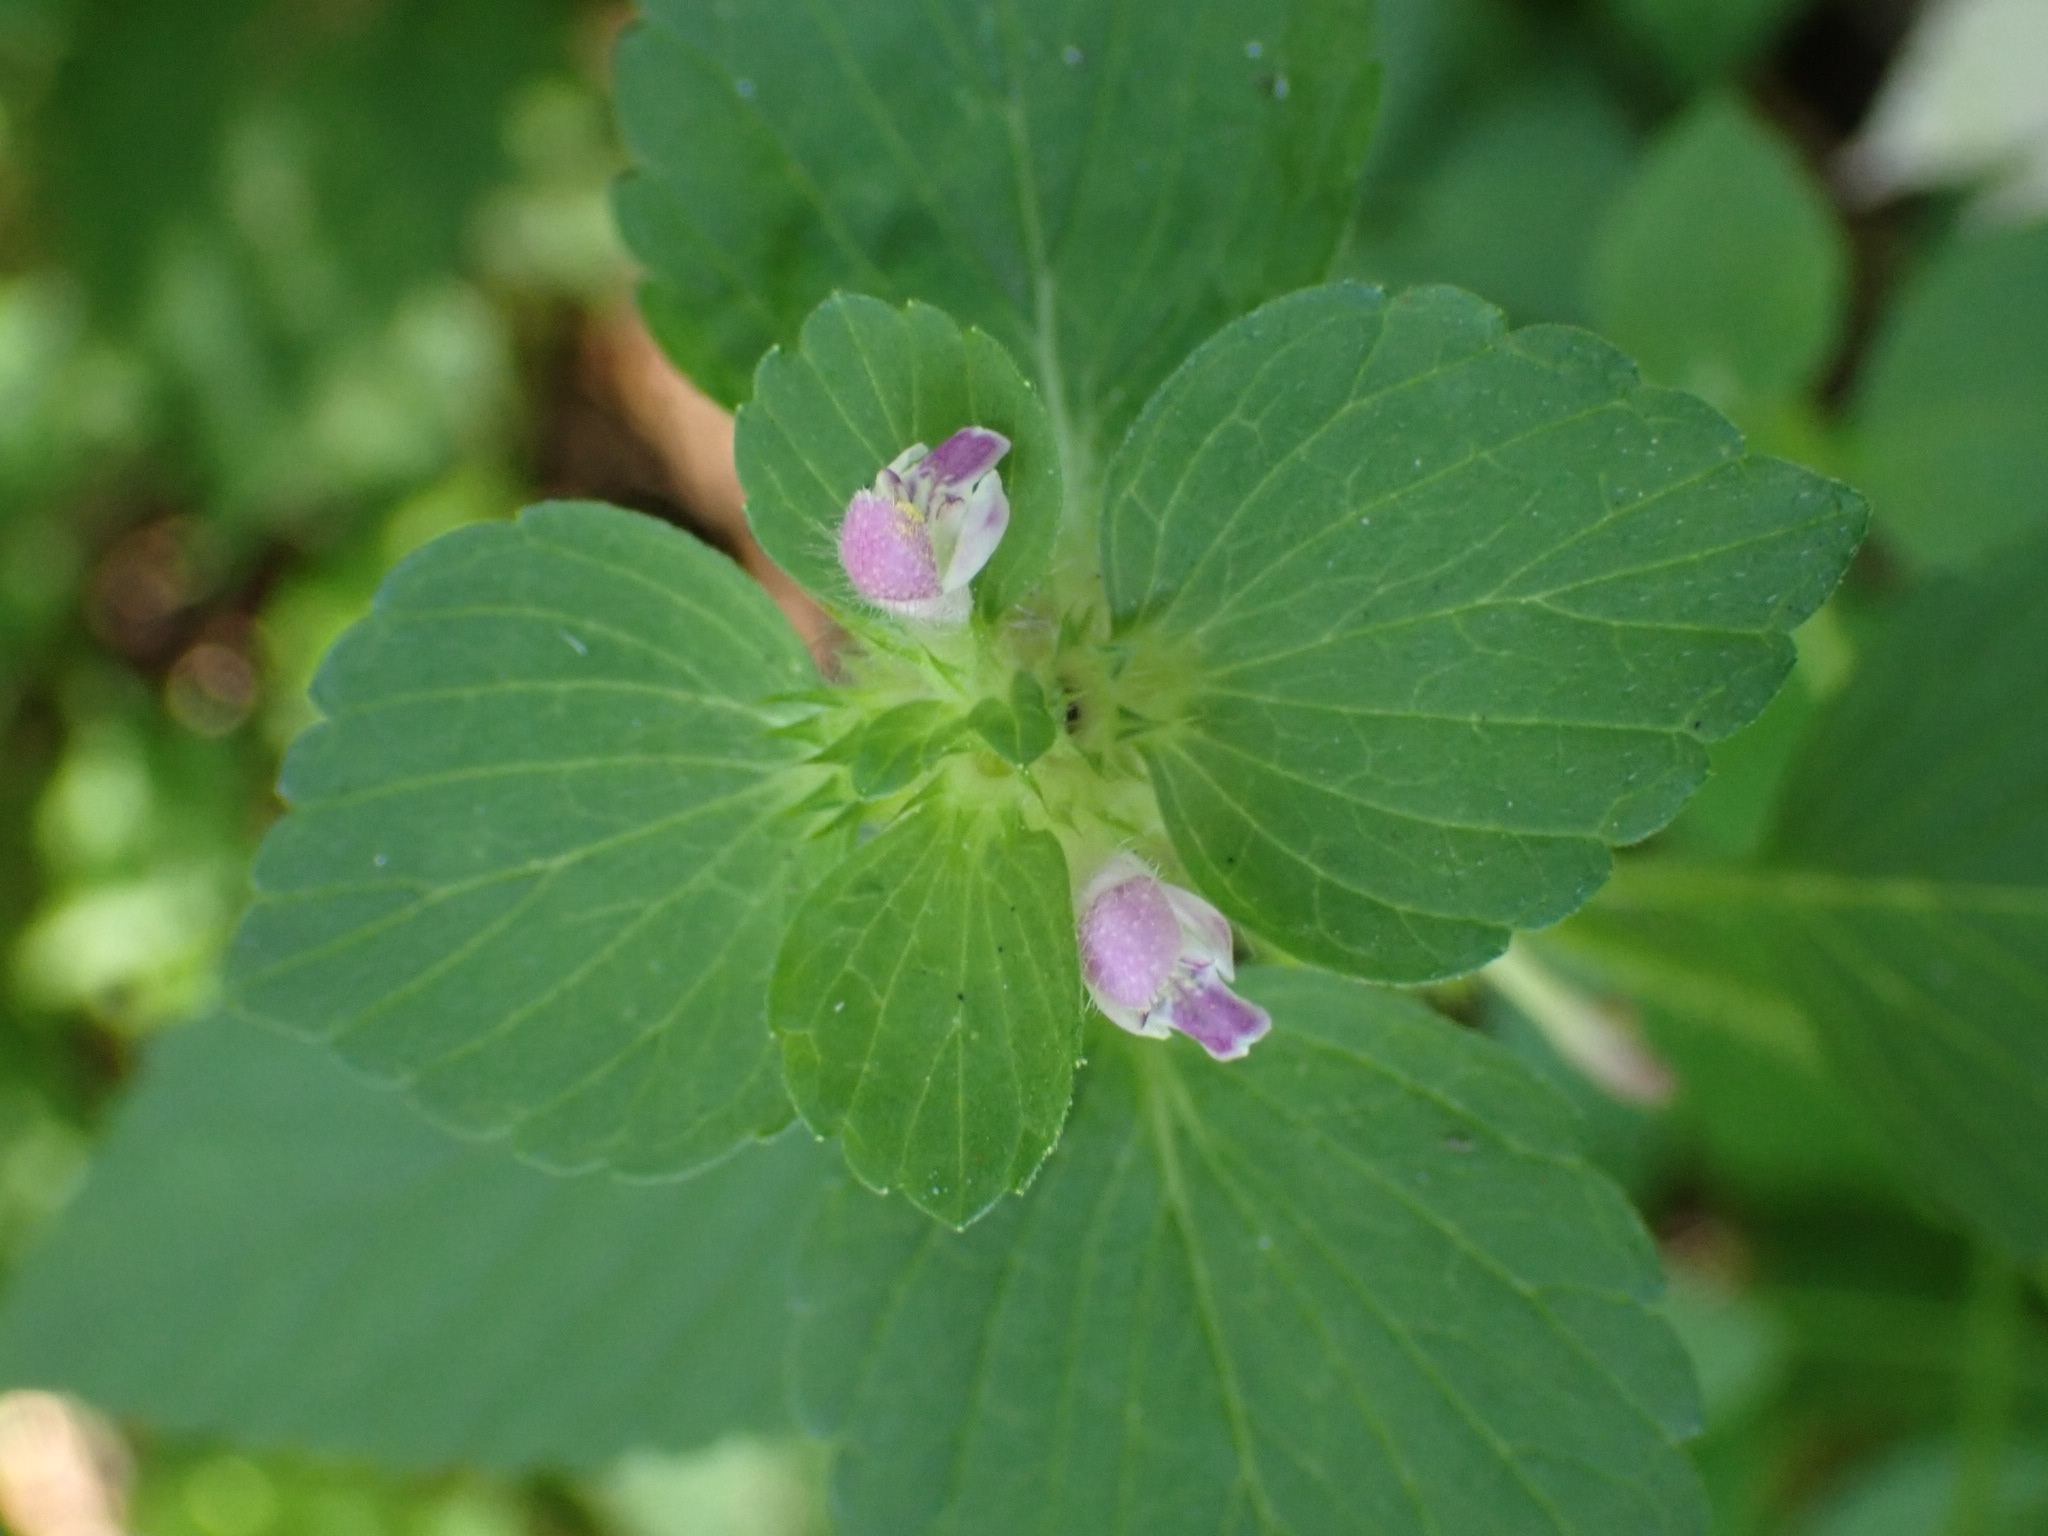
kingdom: Plantae
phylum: Tracheophyta
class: Magnoliopsida
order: Lamiales
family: Lamiaceae
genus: Galeopsis
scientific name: Galeopsis bifida
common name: Bifid hemp-nettle
